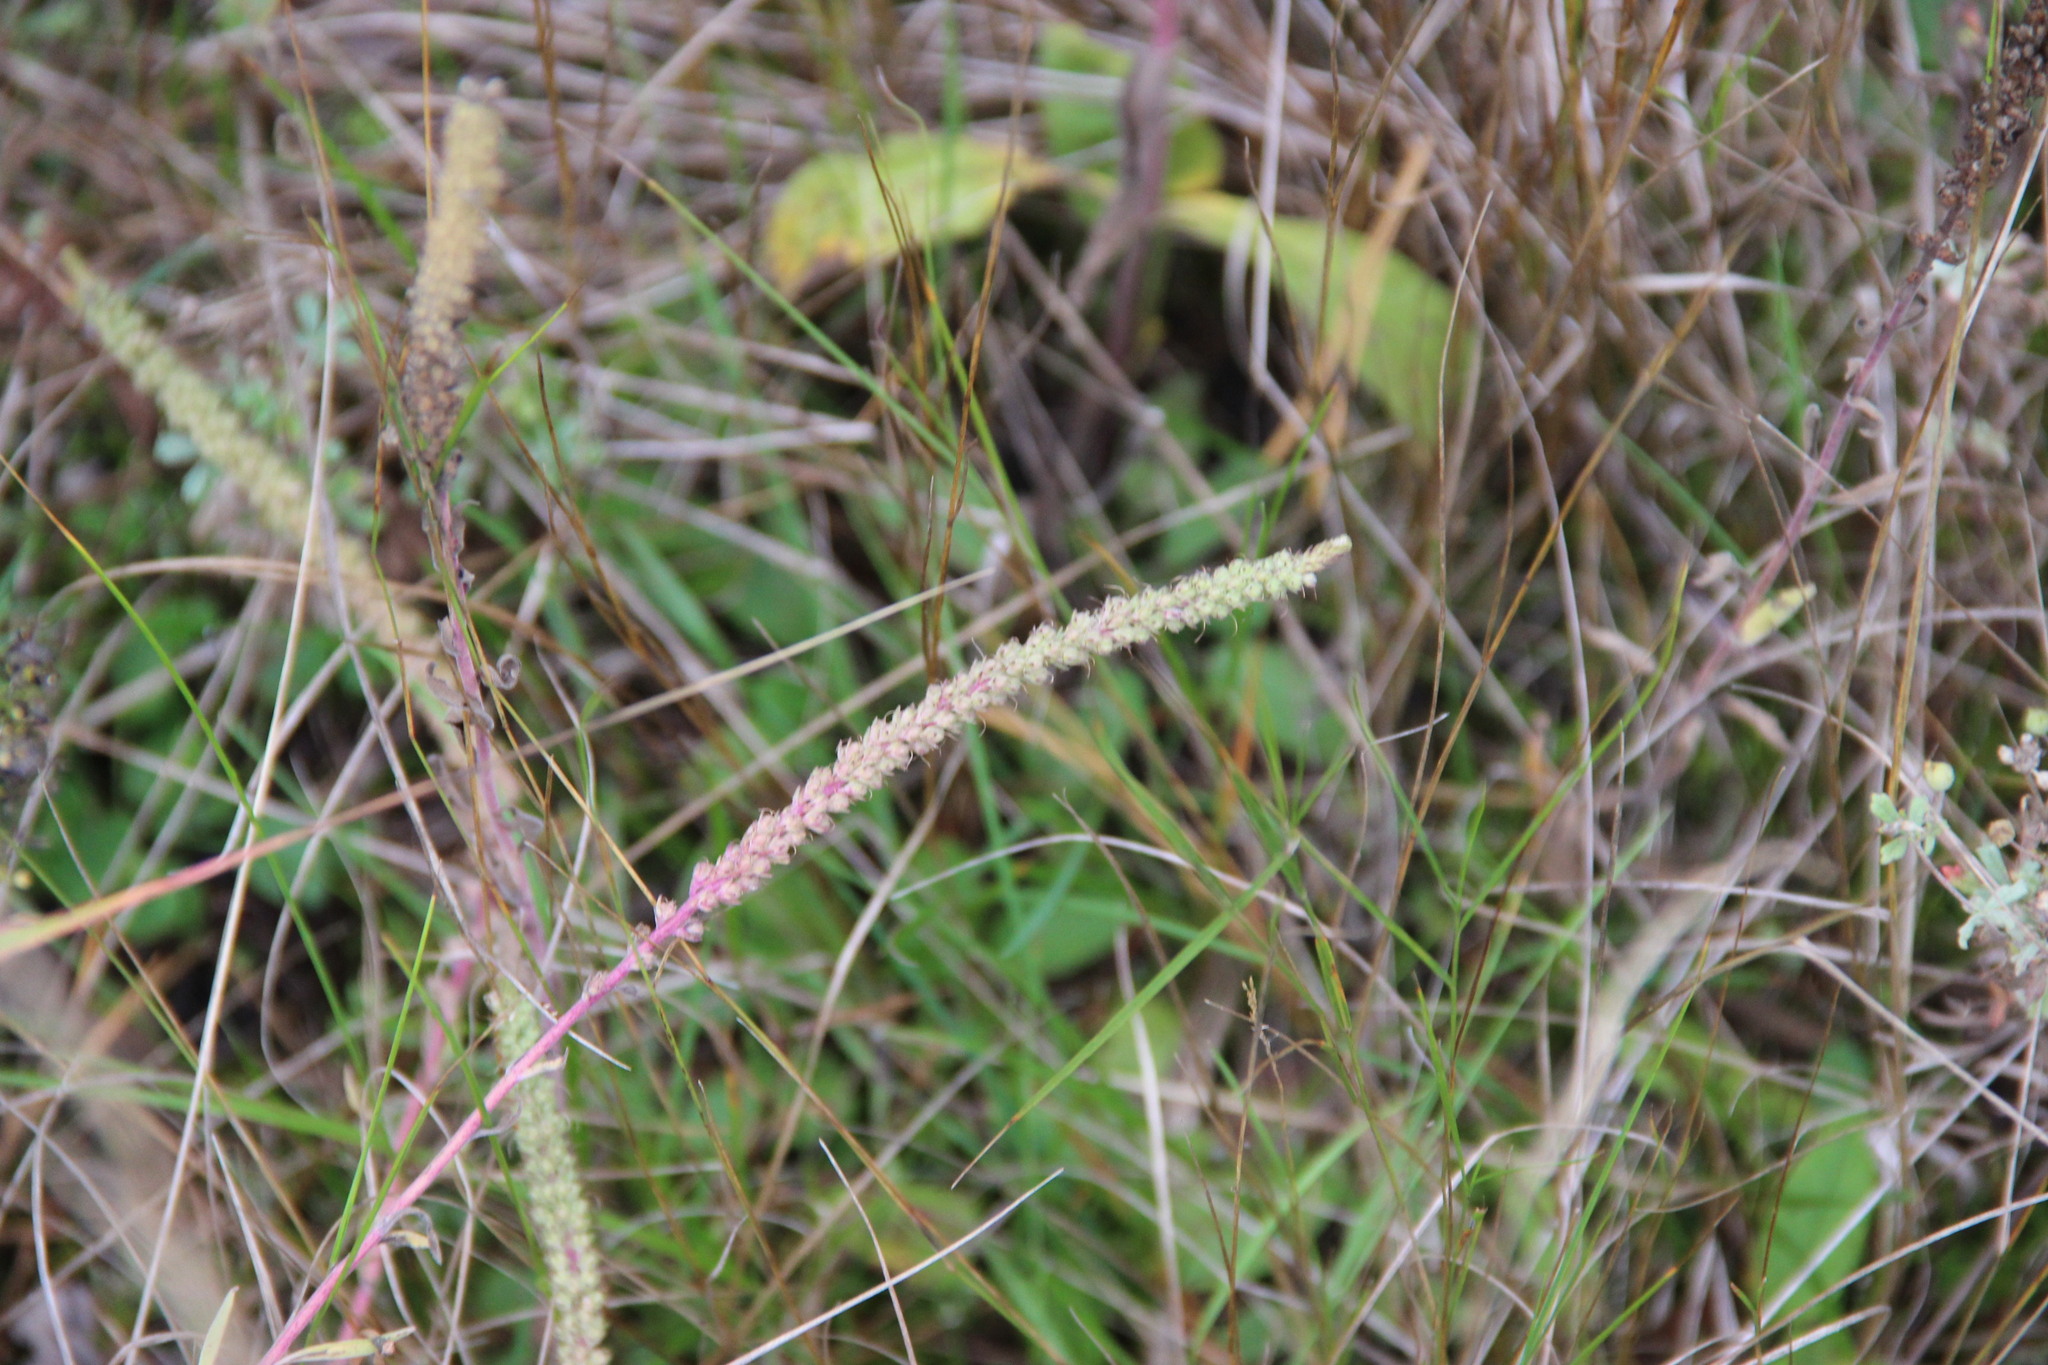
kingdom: Plantae
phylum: Tracheophyta
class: Magnoliopsida
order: Lamiales
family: Plantaginaceae
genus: Veronica
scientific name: Veronica spicata
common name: Spiked speedwell
